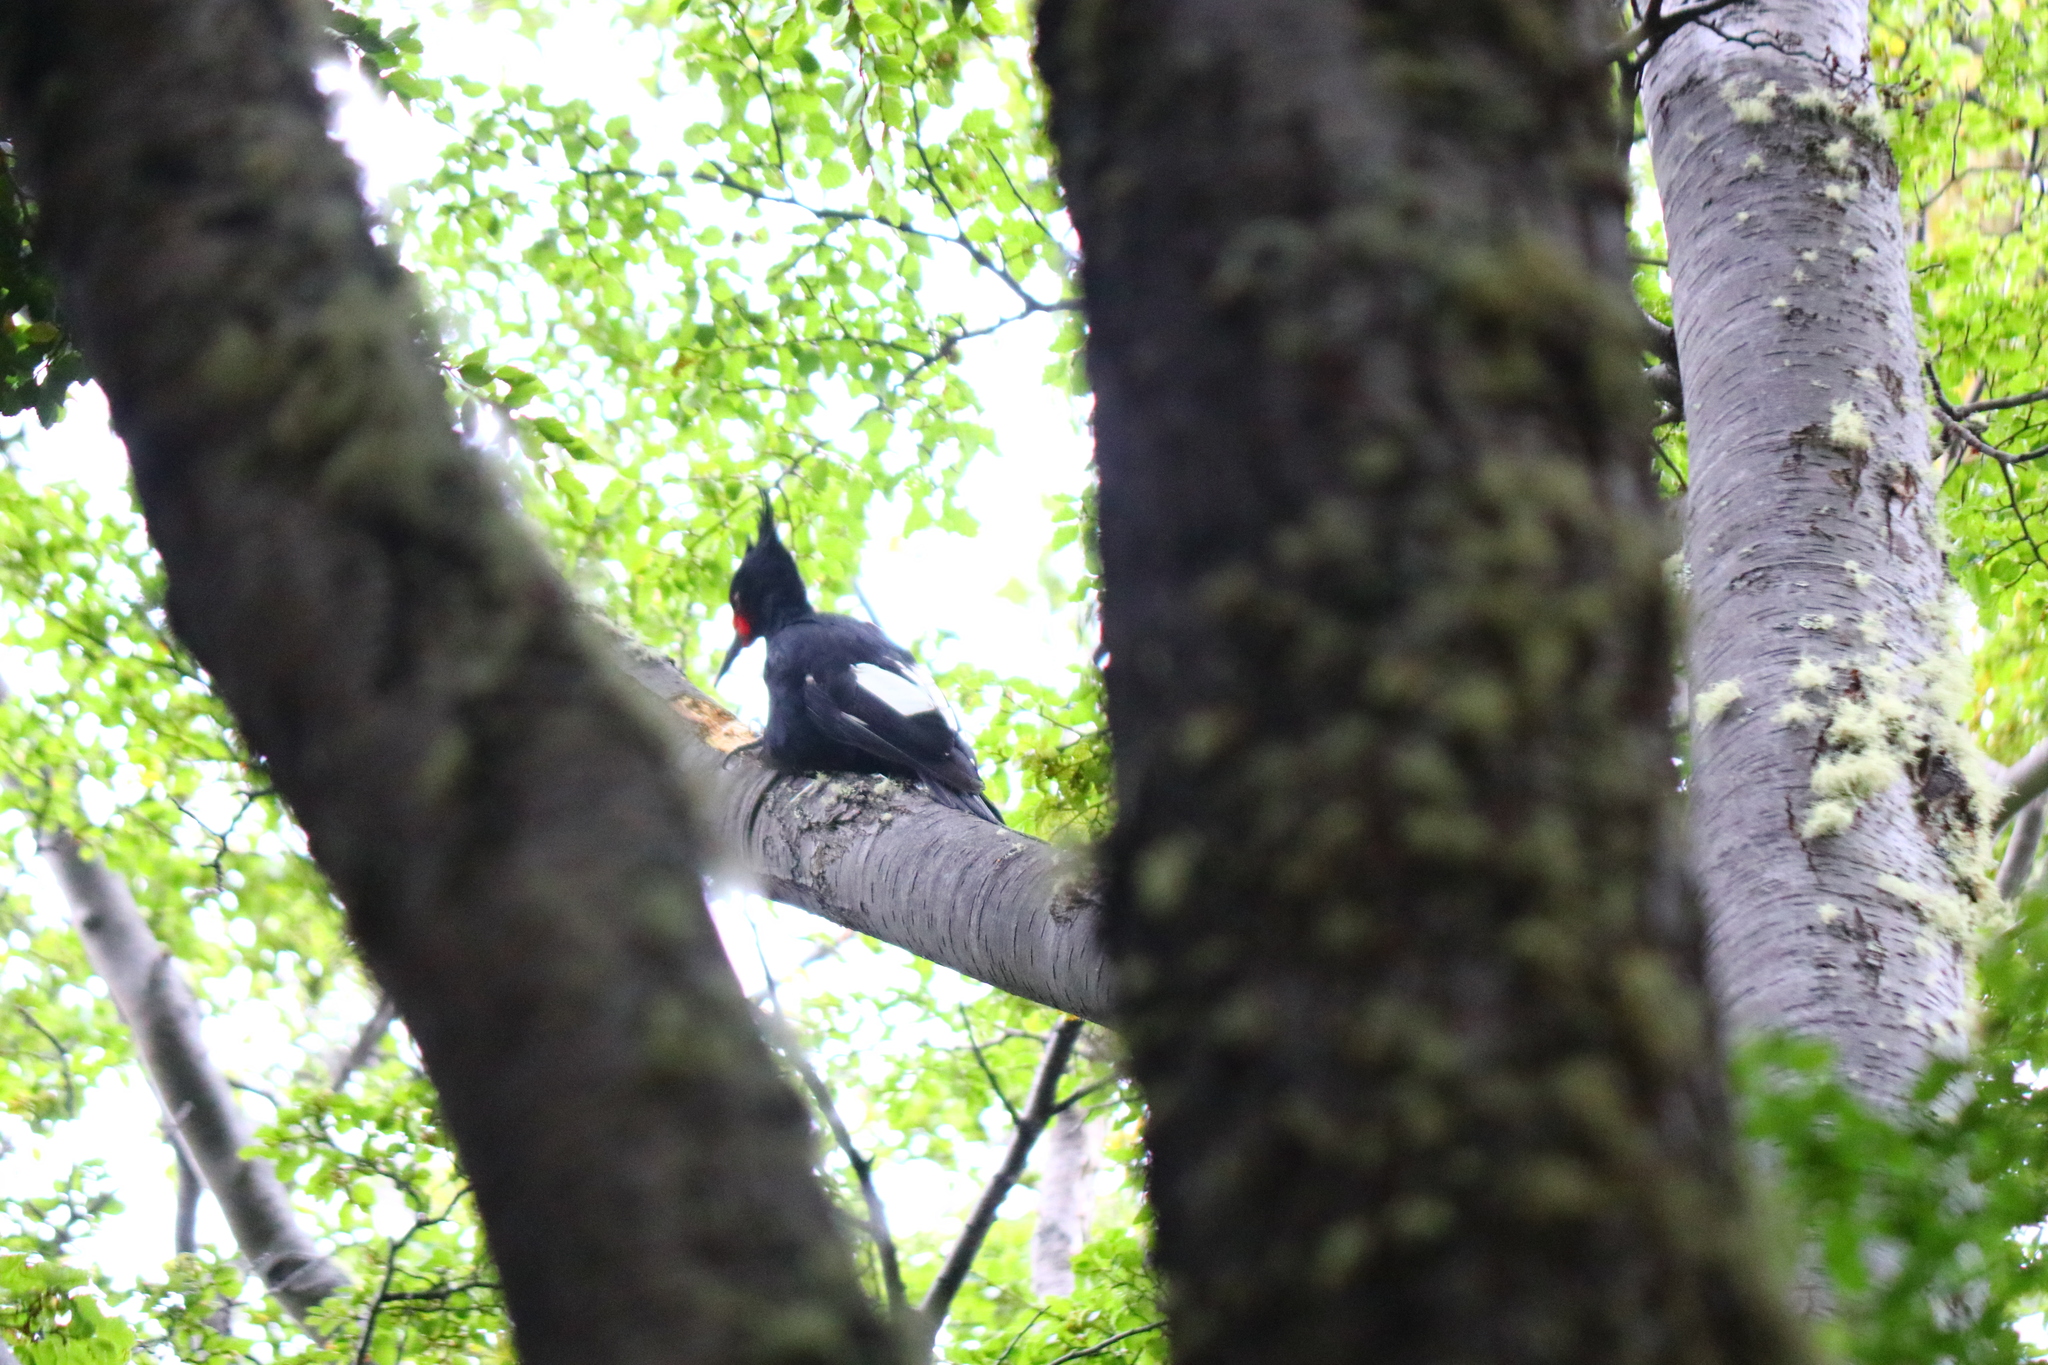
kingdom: Animalia
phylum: Chordata
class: Aves
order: Piciformes
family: Picidae
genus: Campephilus
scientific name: Campephilus magellanicus
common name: Magellanic woodpecker
